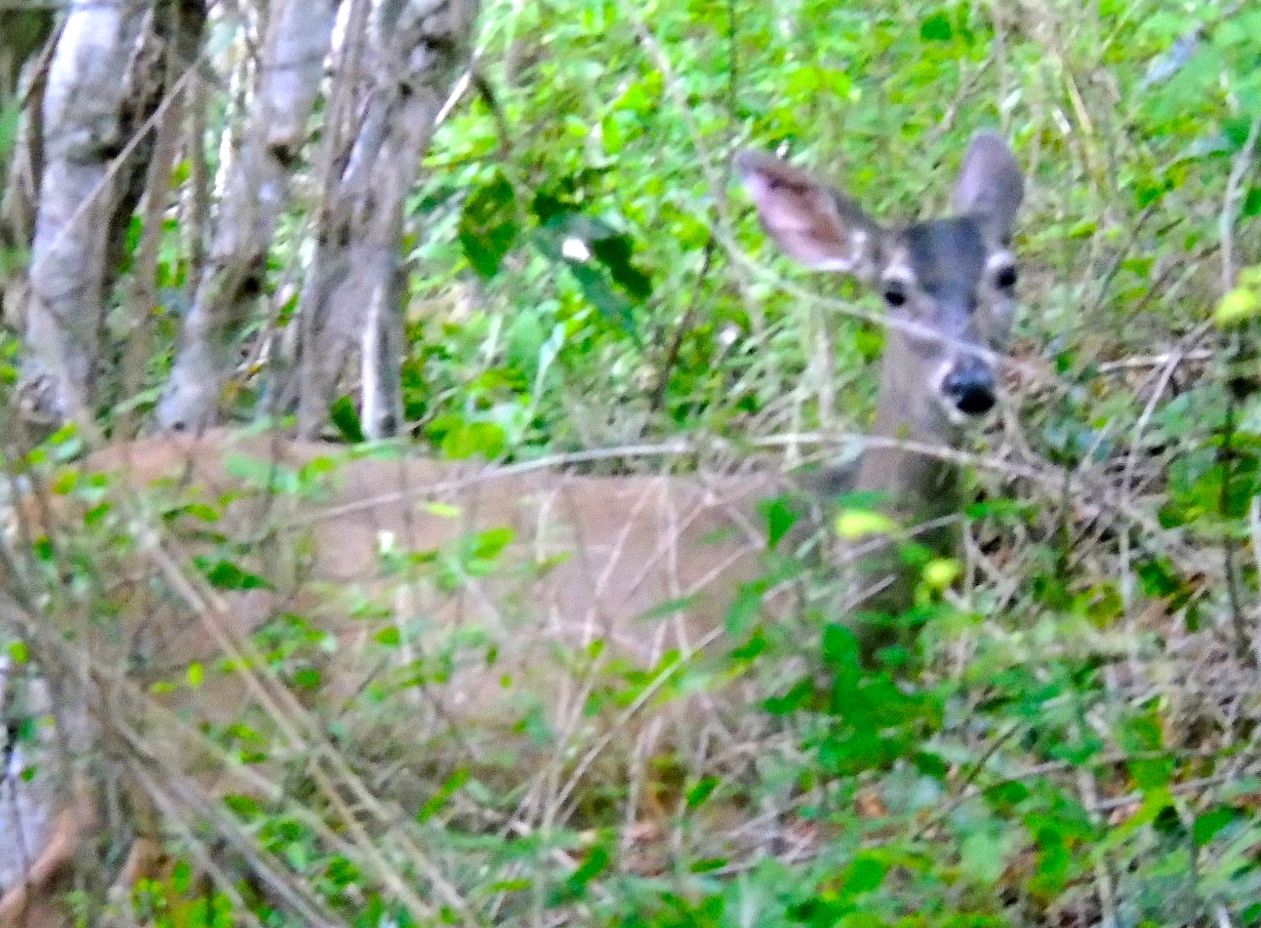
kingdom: Animalia
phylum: Chordata
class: Mammalia
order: Artiodactyla
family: Cervidae
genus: Odocoileus
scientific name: Odocoileus virginianus
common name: White-tailed deer
